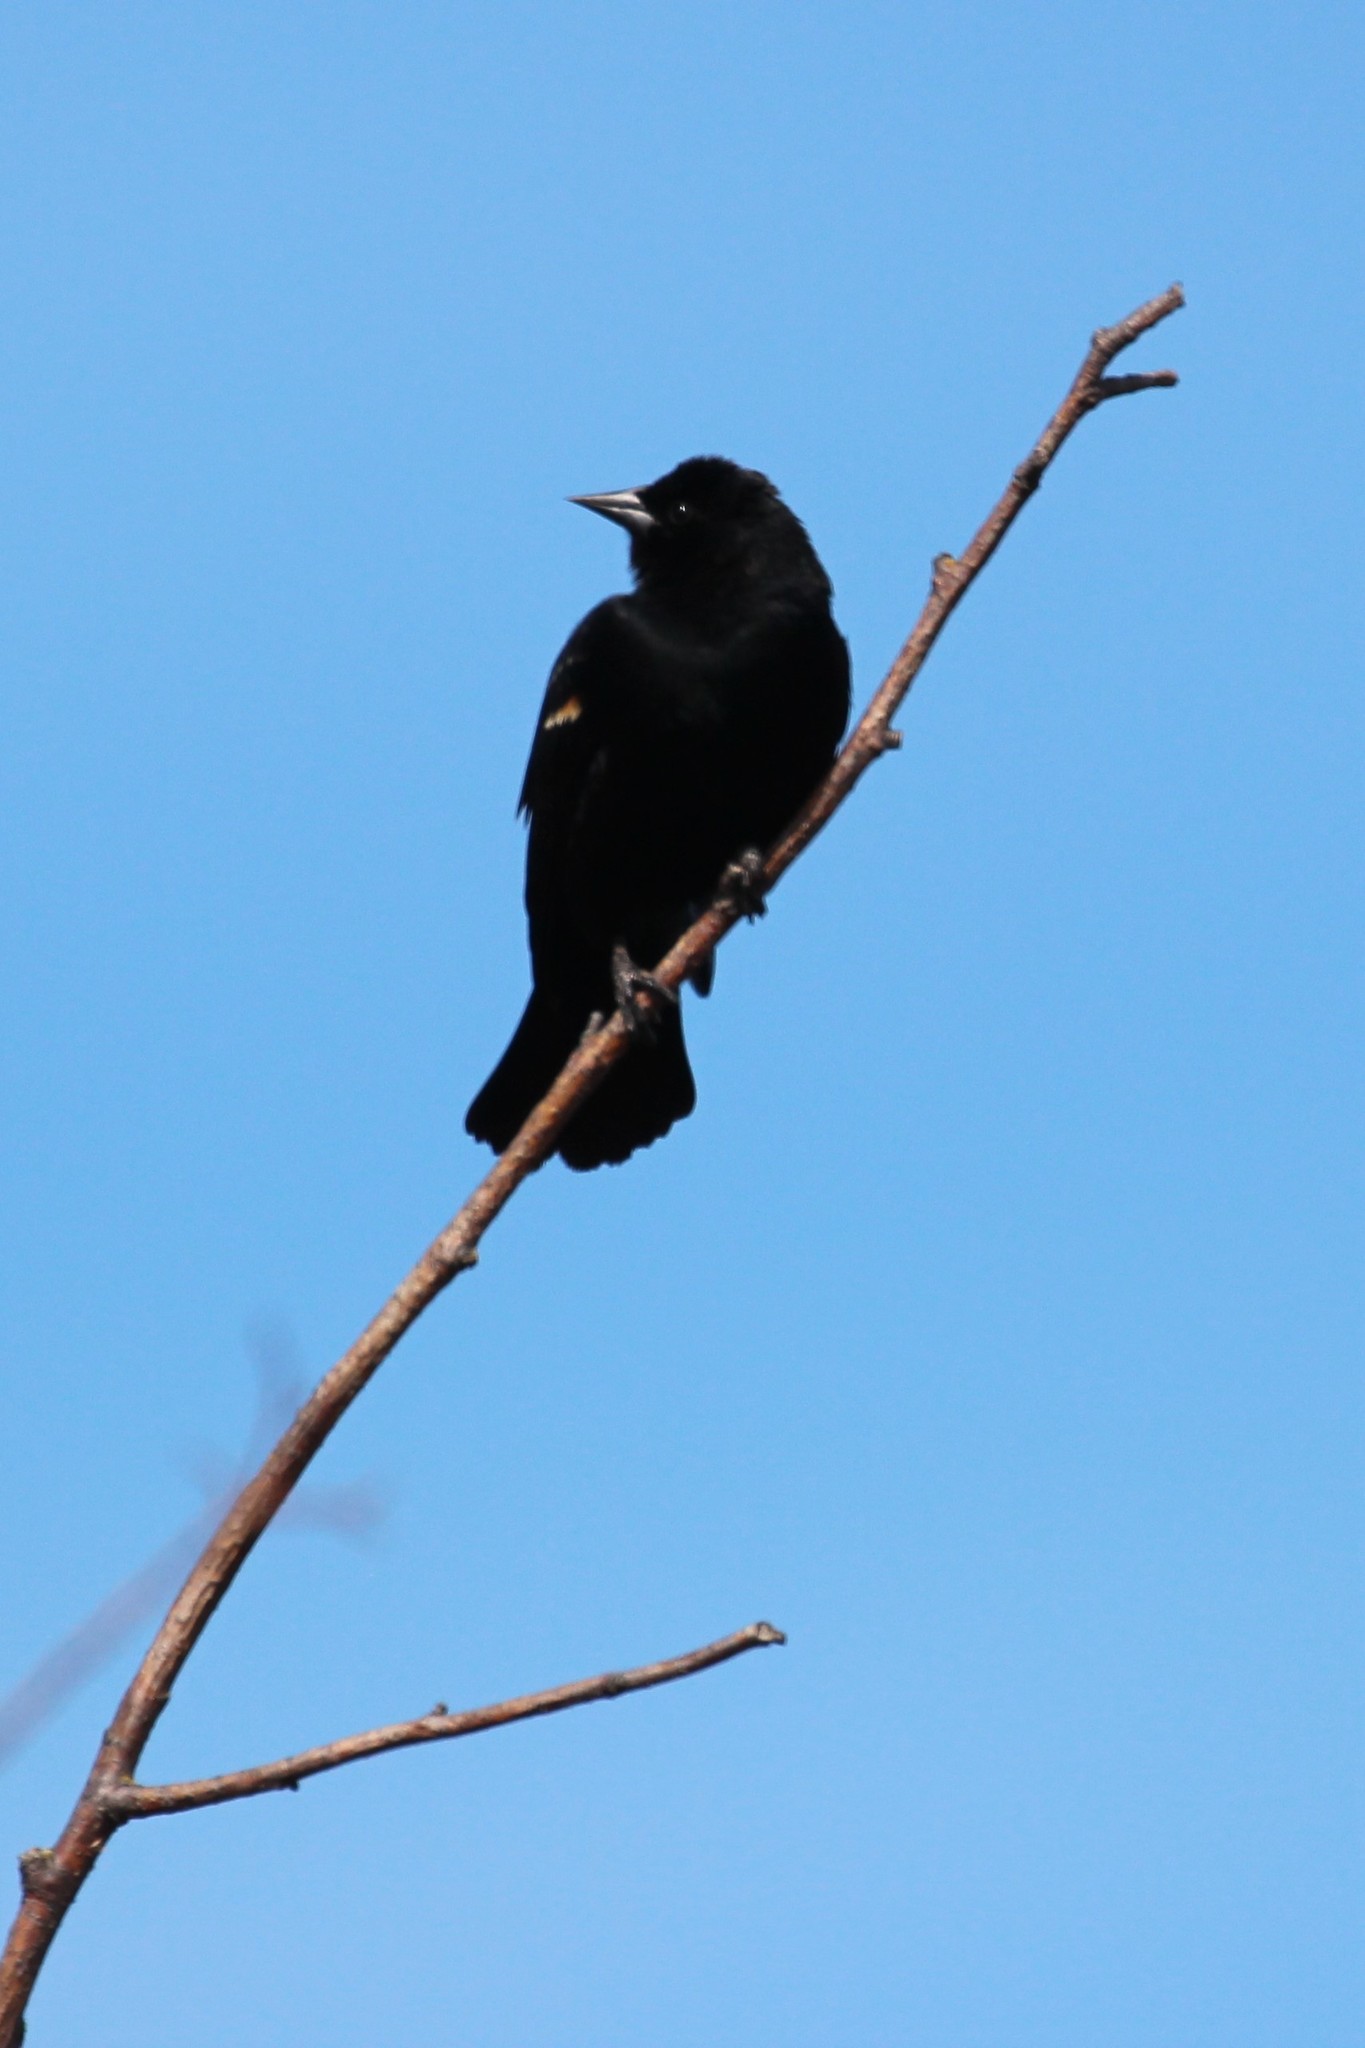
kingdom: Animalia
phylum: Chordata
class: Aves
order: Passeriformes
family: Icteridae
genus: Agelaius
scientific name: Agelaius phoeniceus
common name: Red-winged blackbird
